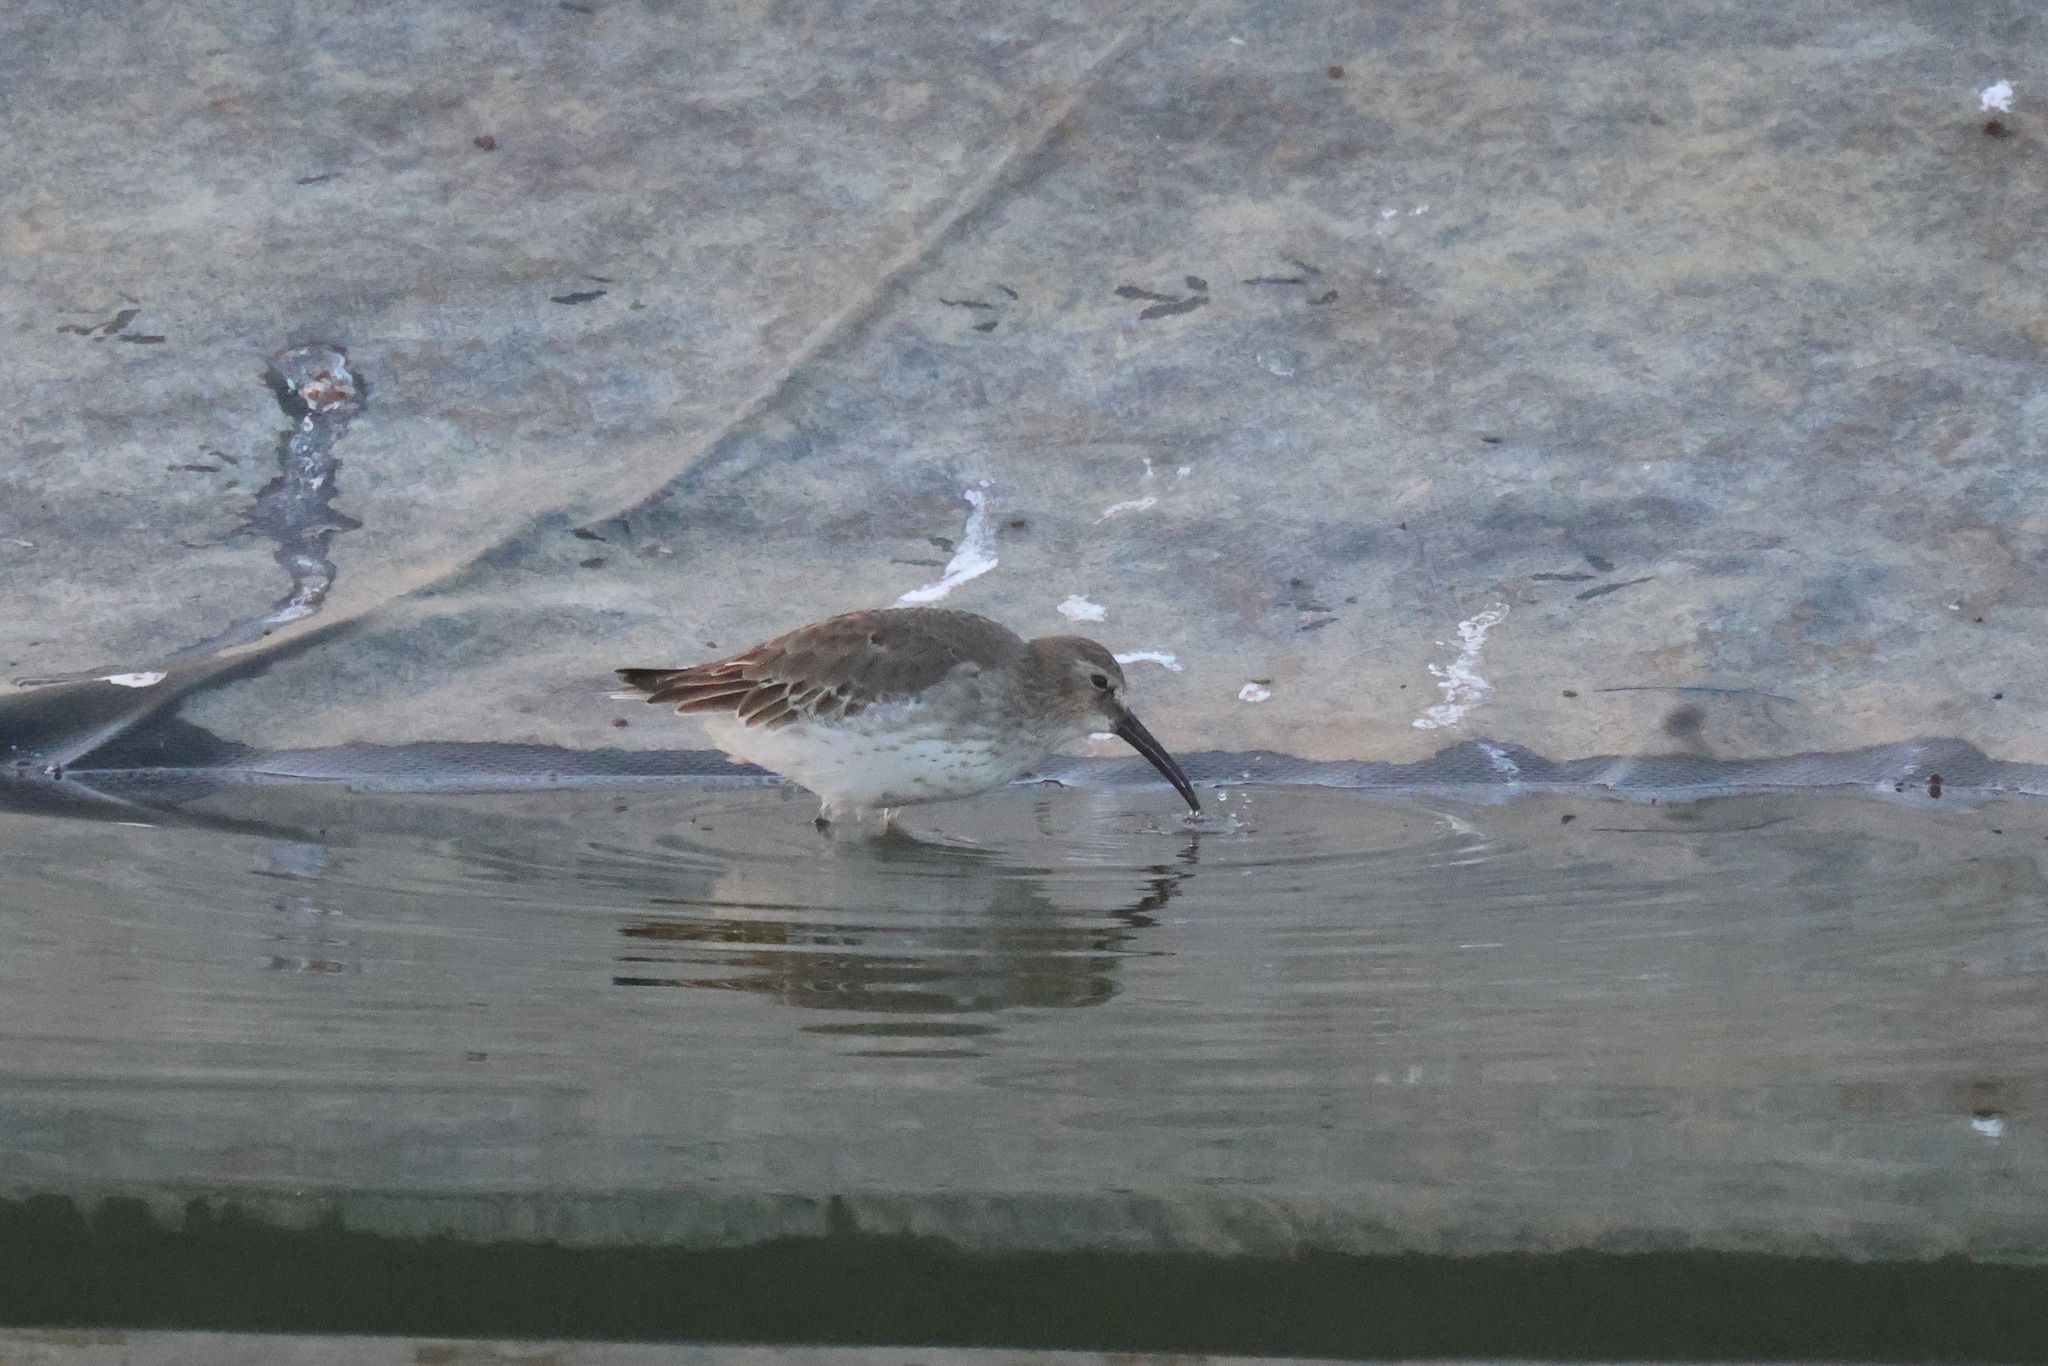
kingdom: Animalia
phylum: Chordata
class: Aves
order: Charadriiformes
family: Scolopacidae
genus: Calidris
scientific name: Calidris alpina
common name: Dunlin
